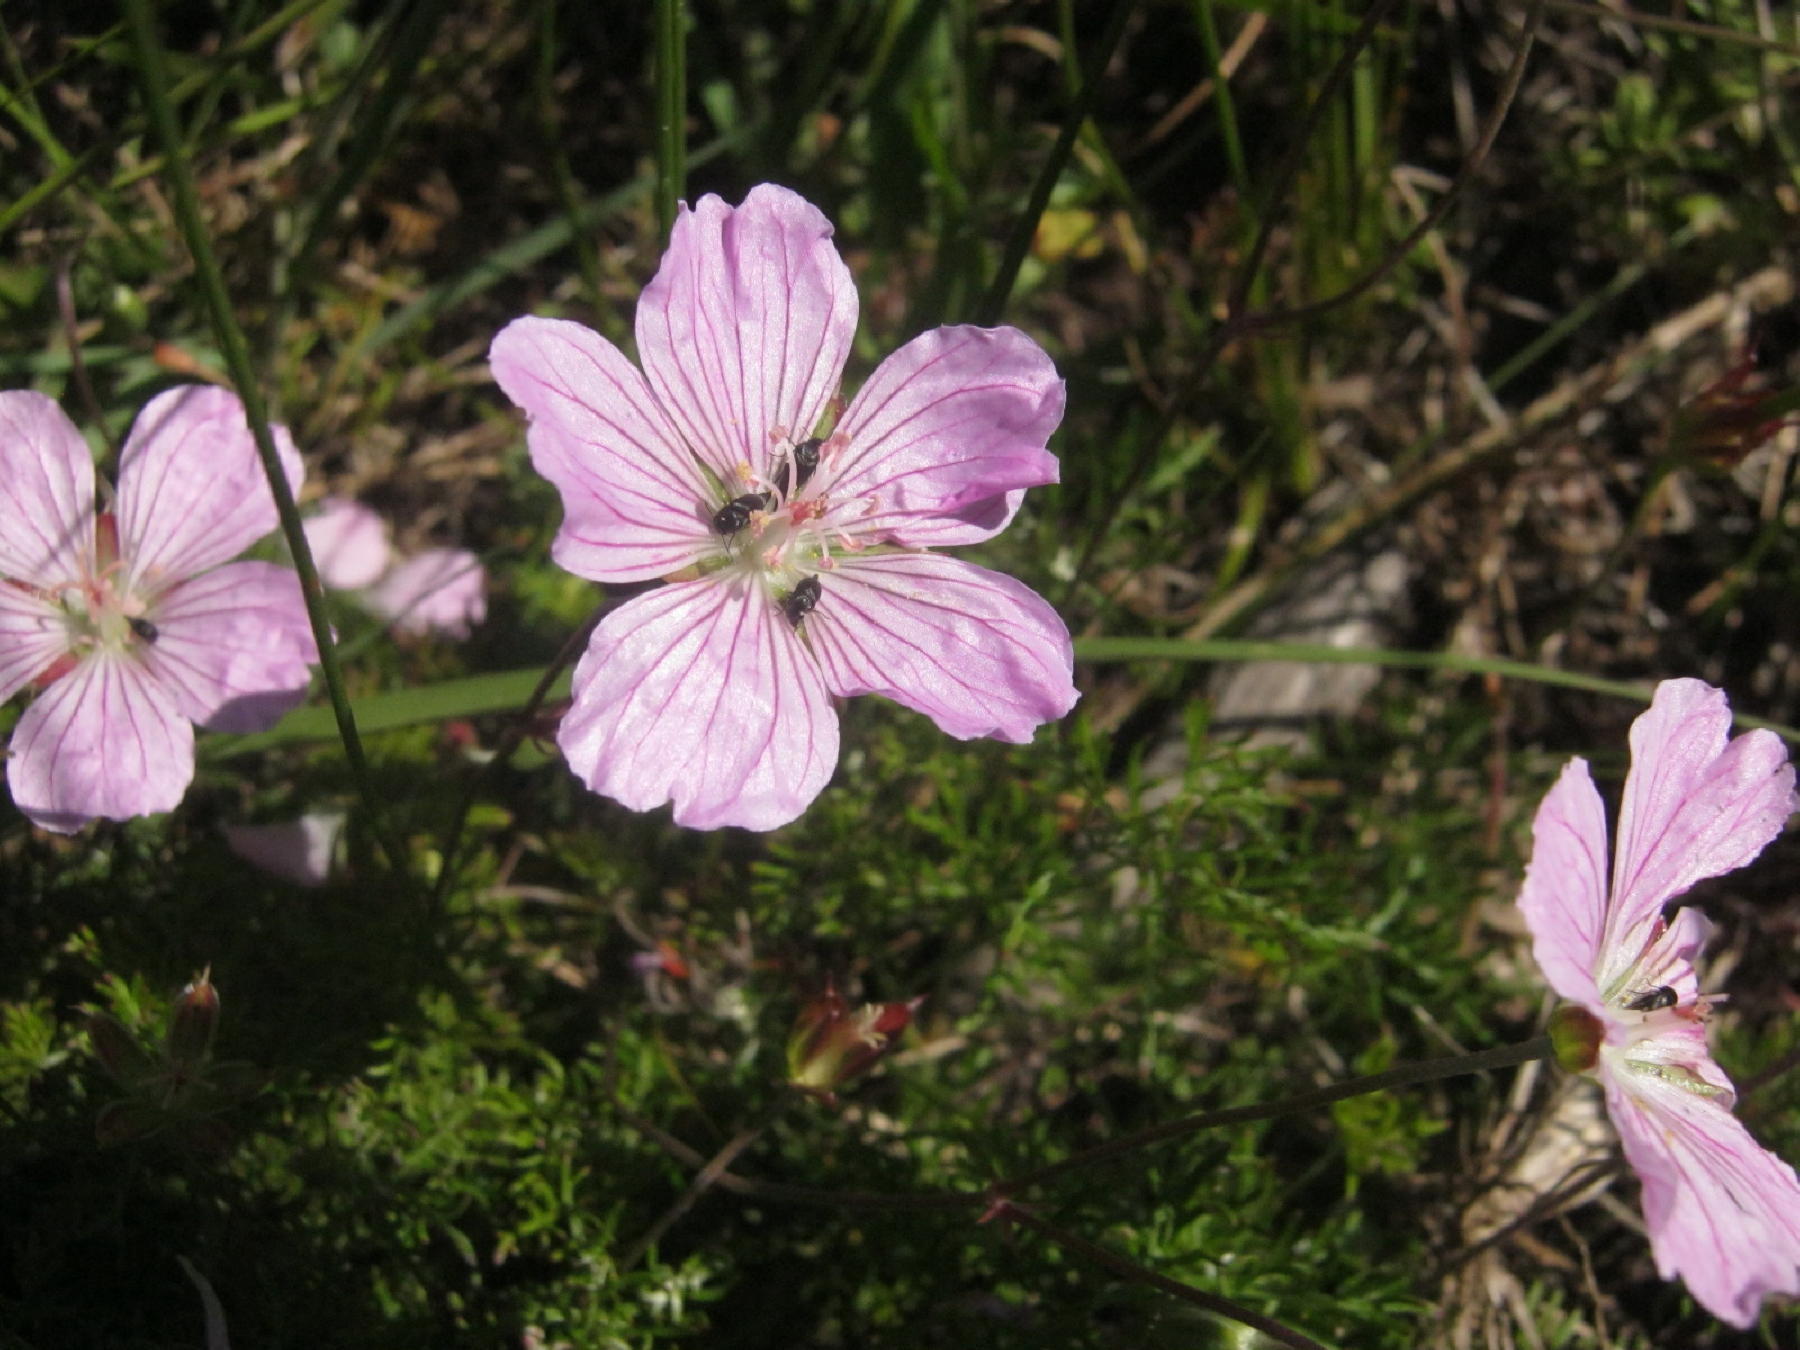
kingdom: Plantae
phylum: Tracheophyta
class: Magnoliopsida
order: Geraniales
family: Geraniaceae
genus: Geranium
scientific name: Geranium incanum
